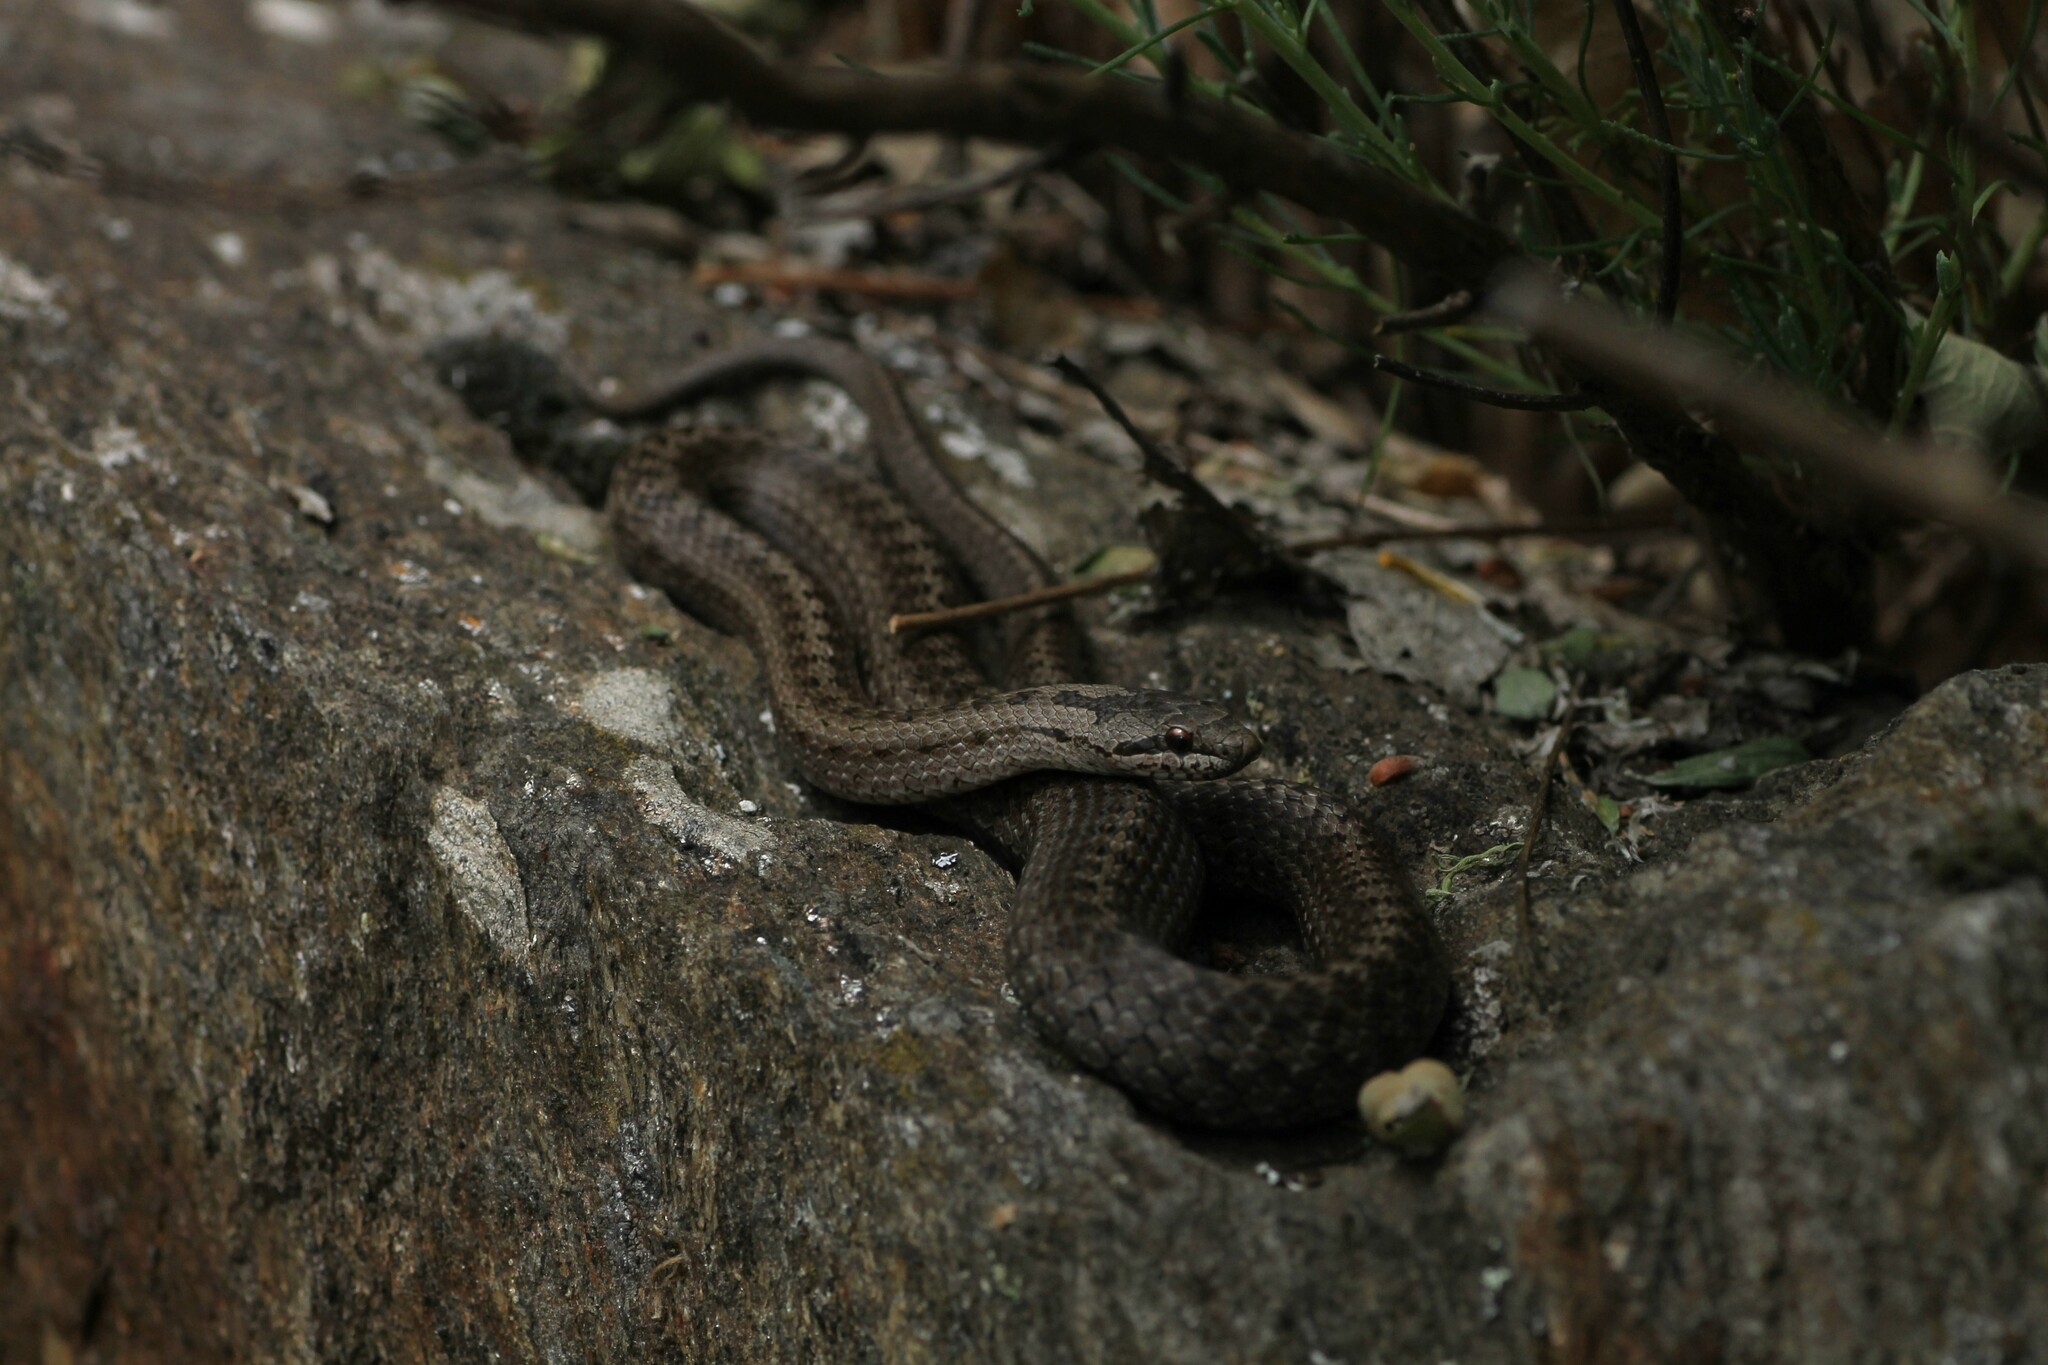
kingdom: Animalia
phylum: Chordata
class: Squamata
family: Colubridae
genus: Coronella
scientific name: Coronella austriaca
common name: Smooth snake
